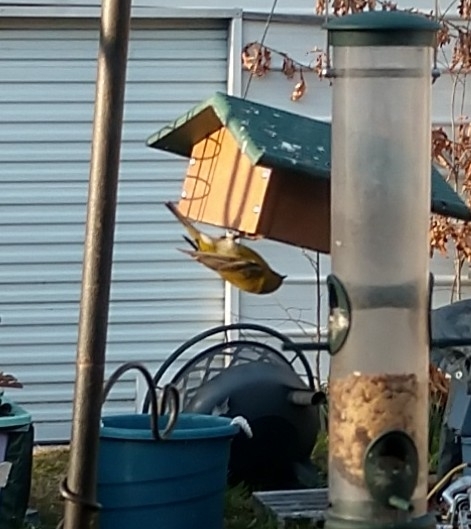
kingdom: Animalia
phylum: Chordata
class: Aves
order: Passeriformes
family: Parulidae
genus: Setophaga
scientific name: Setophaga pinus
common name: Pine warbler
